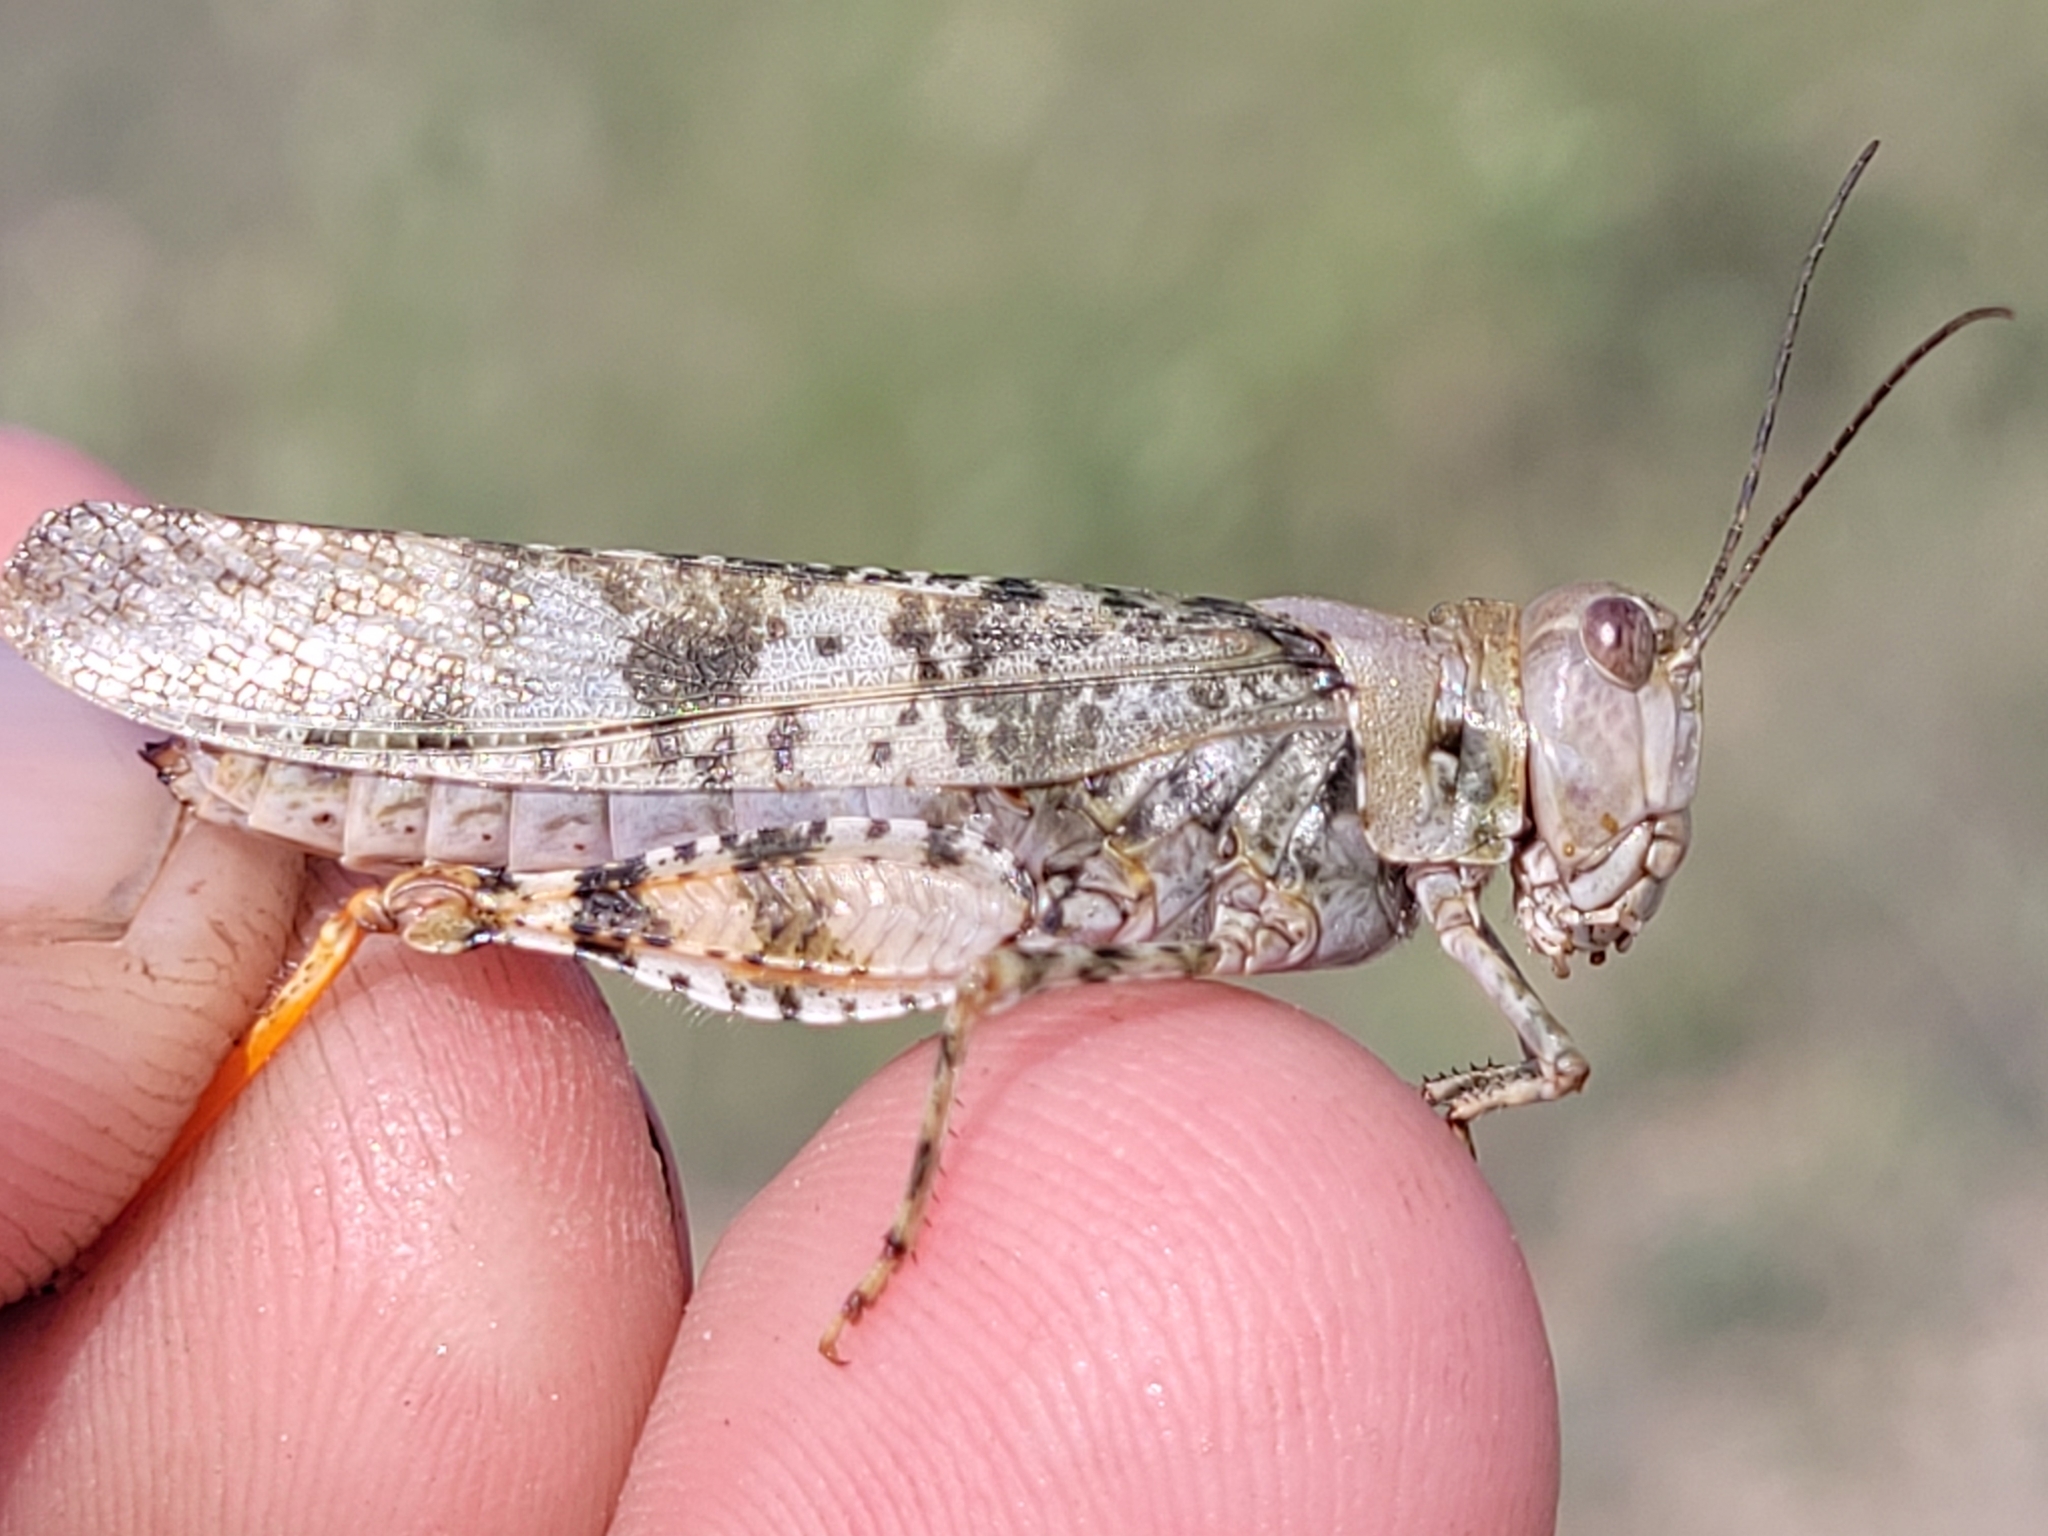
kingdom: Animalia
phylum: Arthropoda
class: Insecta
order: Orthoptera
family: Acrididae
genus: Trimerotropis
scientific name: Trimerotropis salina
